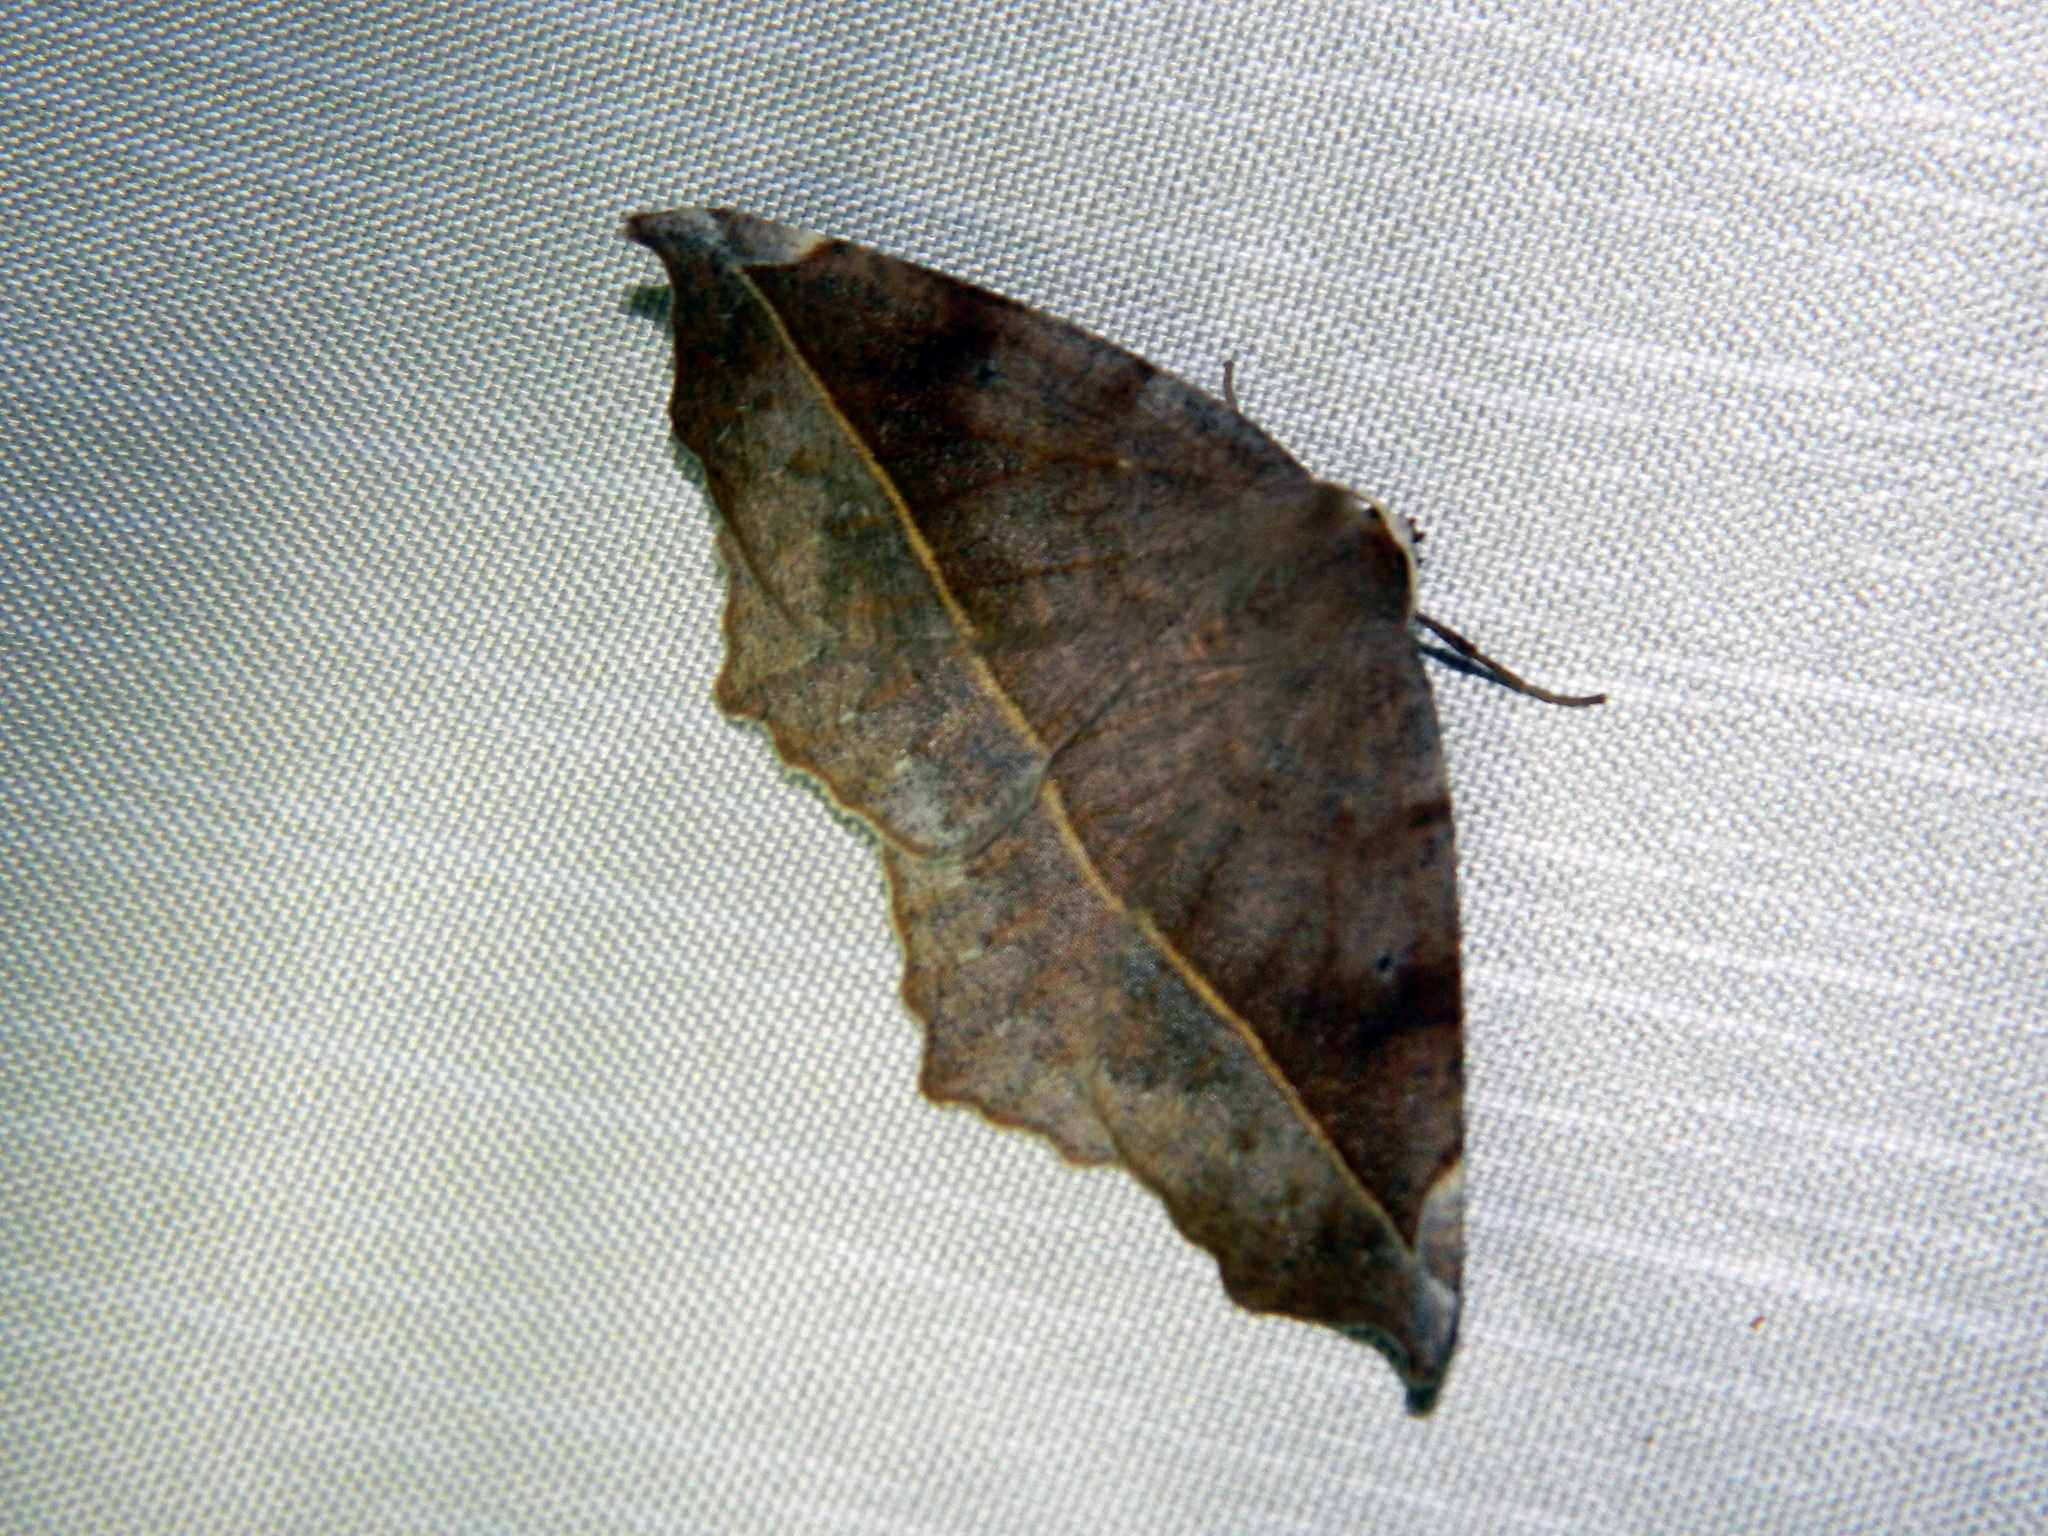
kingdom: Animalia
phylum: Arthropoda
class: Insecta
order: Lepidoptera
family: Geometridae
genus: Eutrapela
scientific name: Eutrapela clemataria
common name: Curved-toothed geometer
